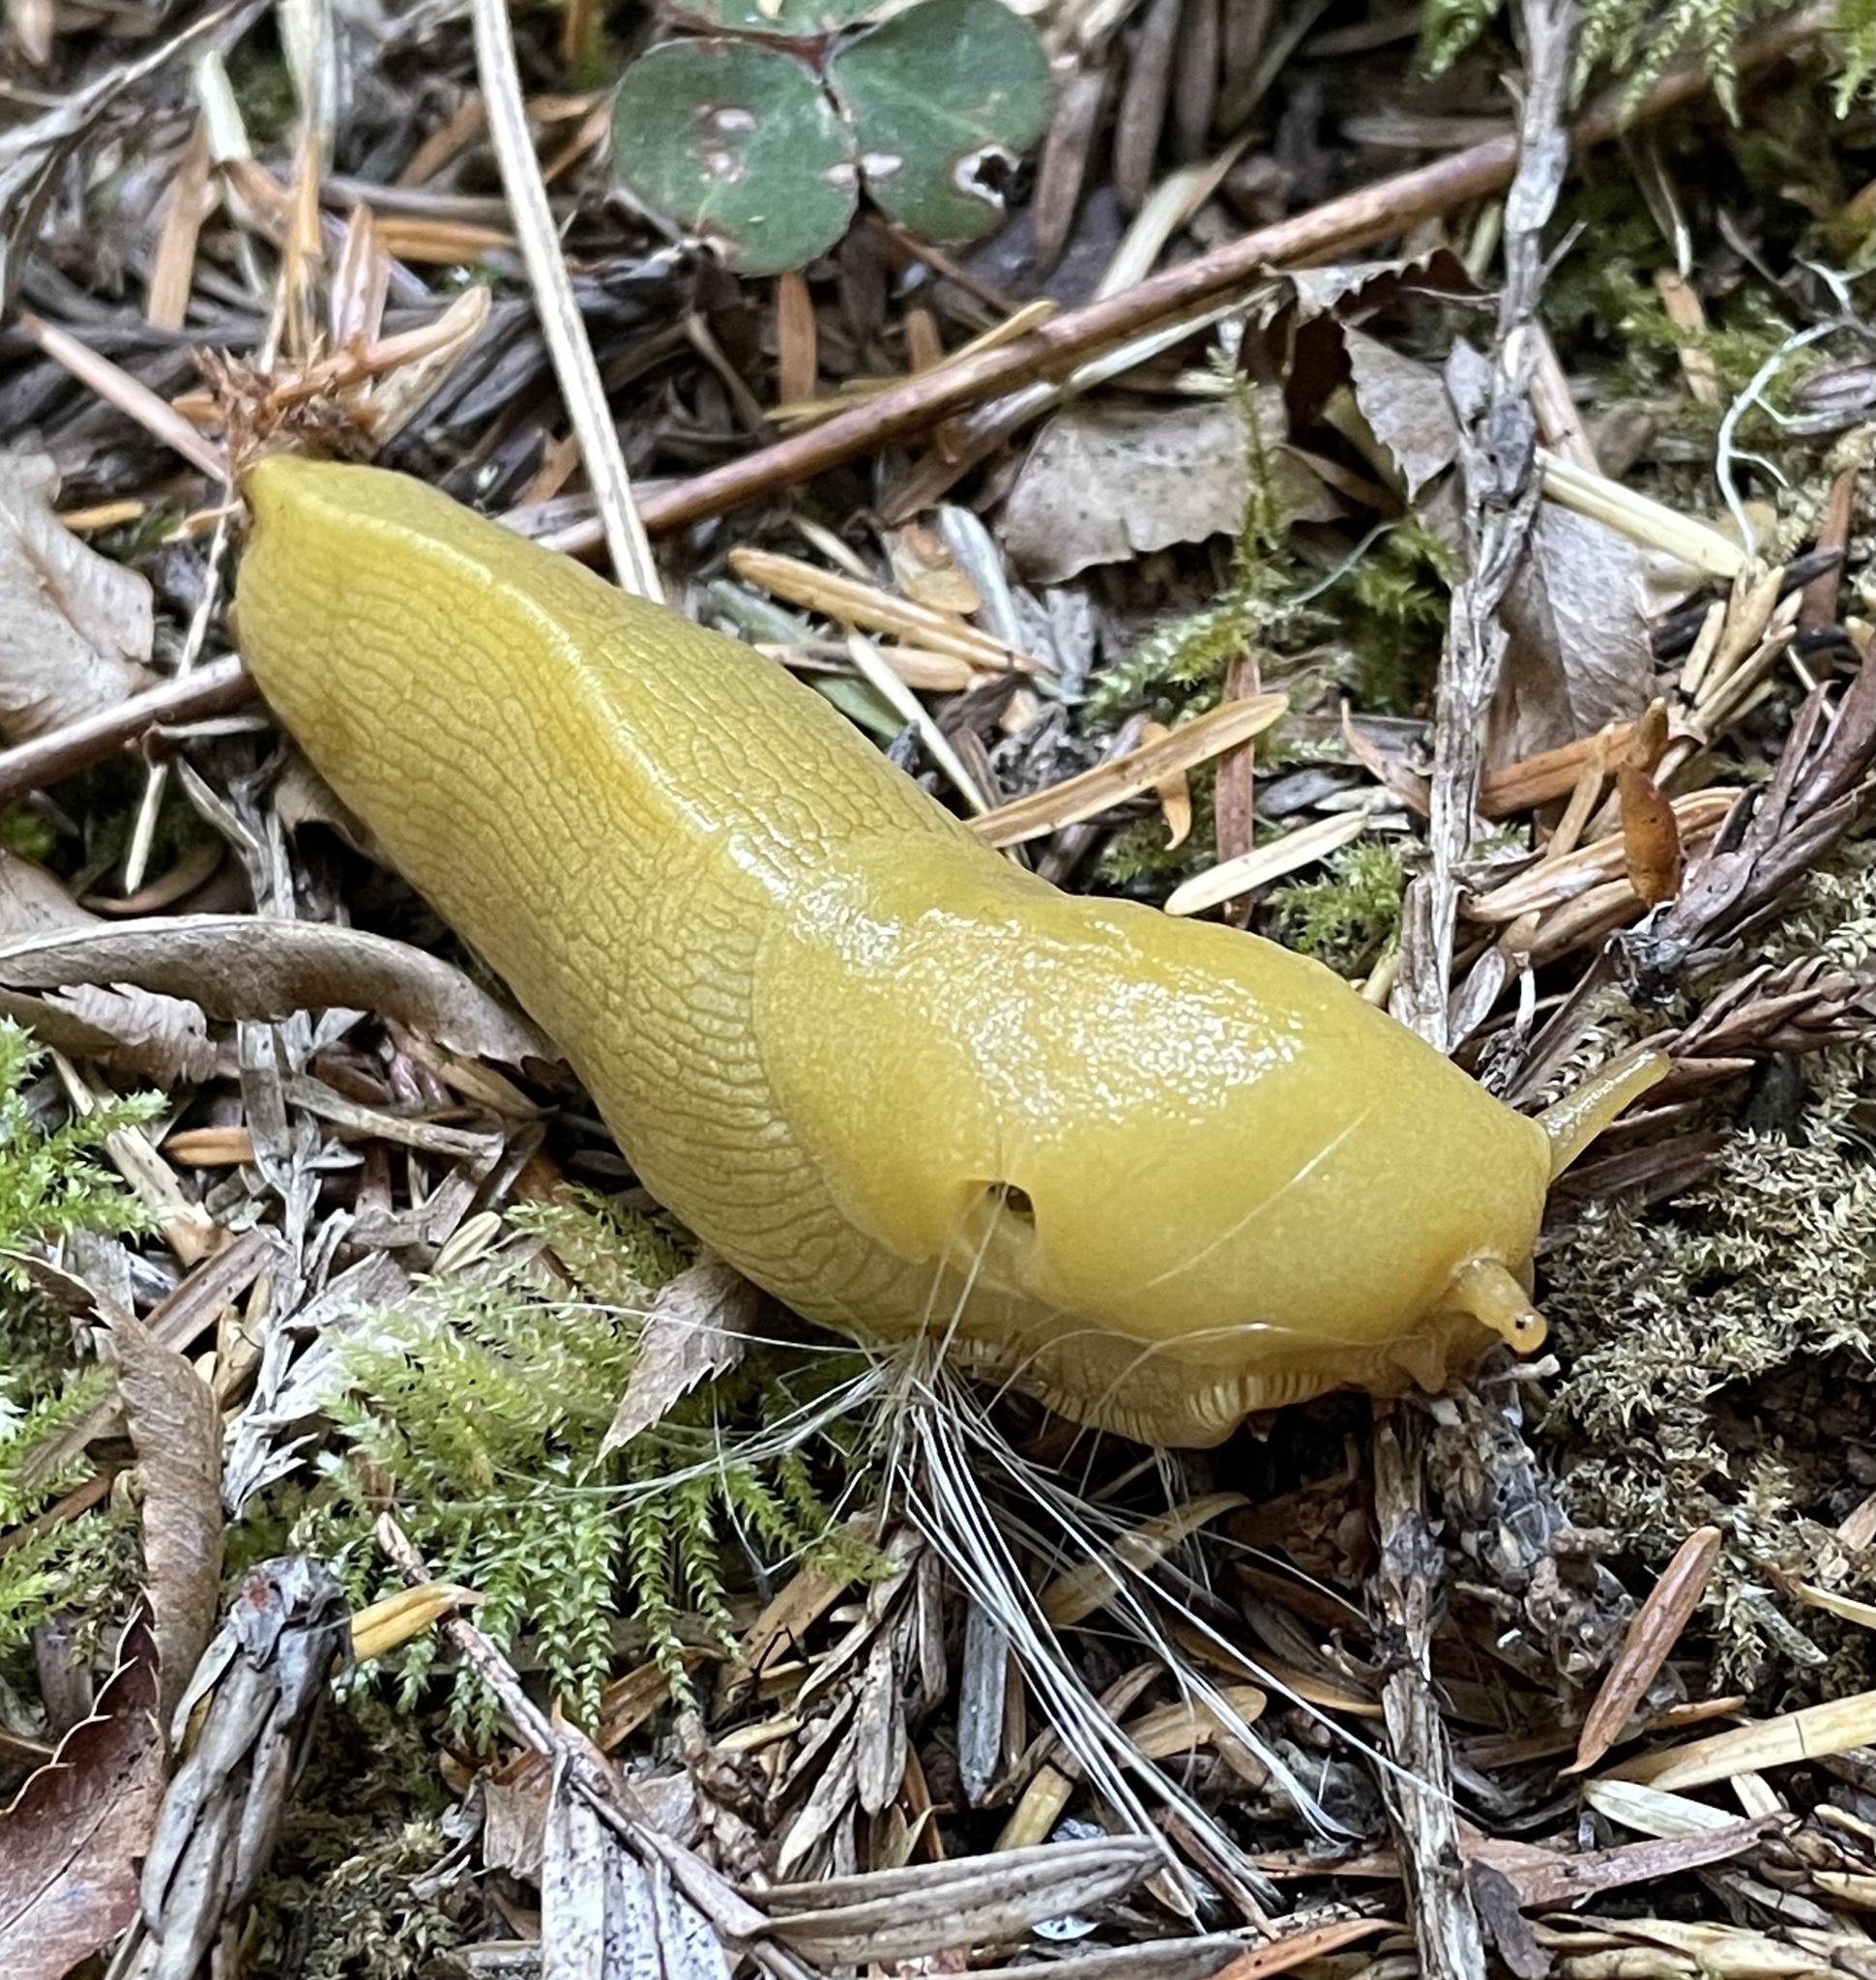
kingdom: Animalia
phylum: Mollusca
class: Gastropoda
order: Stylommatophora
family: Ariolimacidae
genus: Ariolimax
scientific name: Ariolimax columbianus
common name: Pacific banana slug
